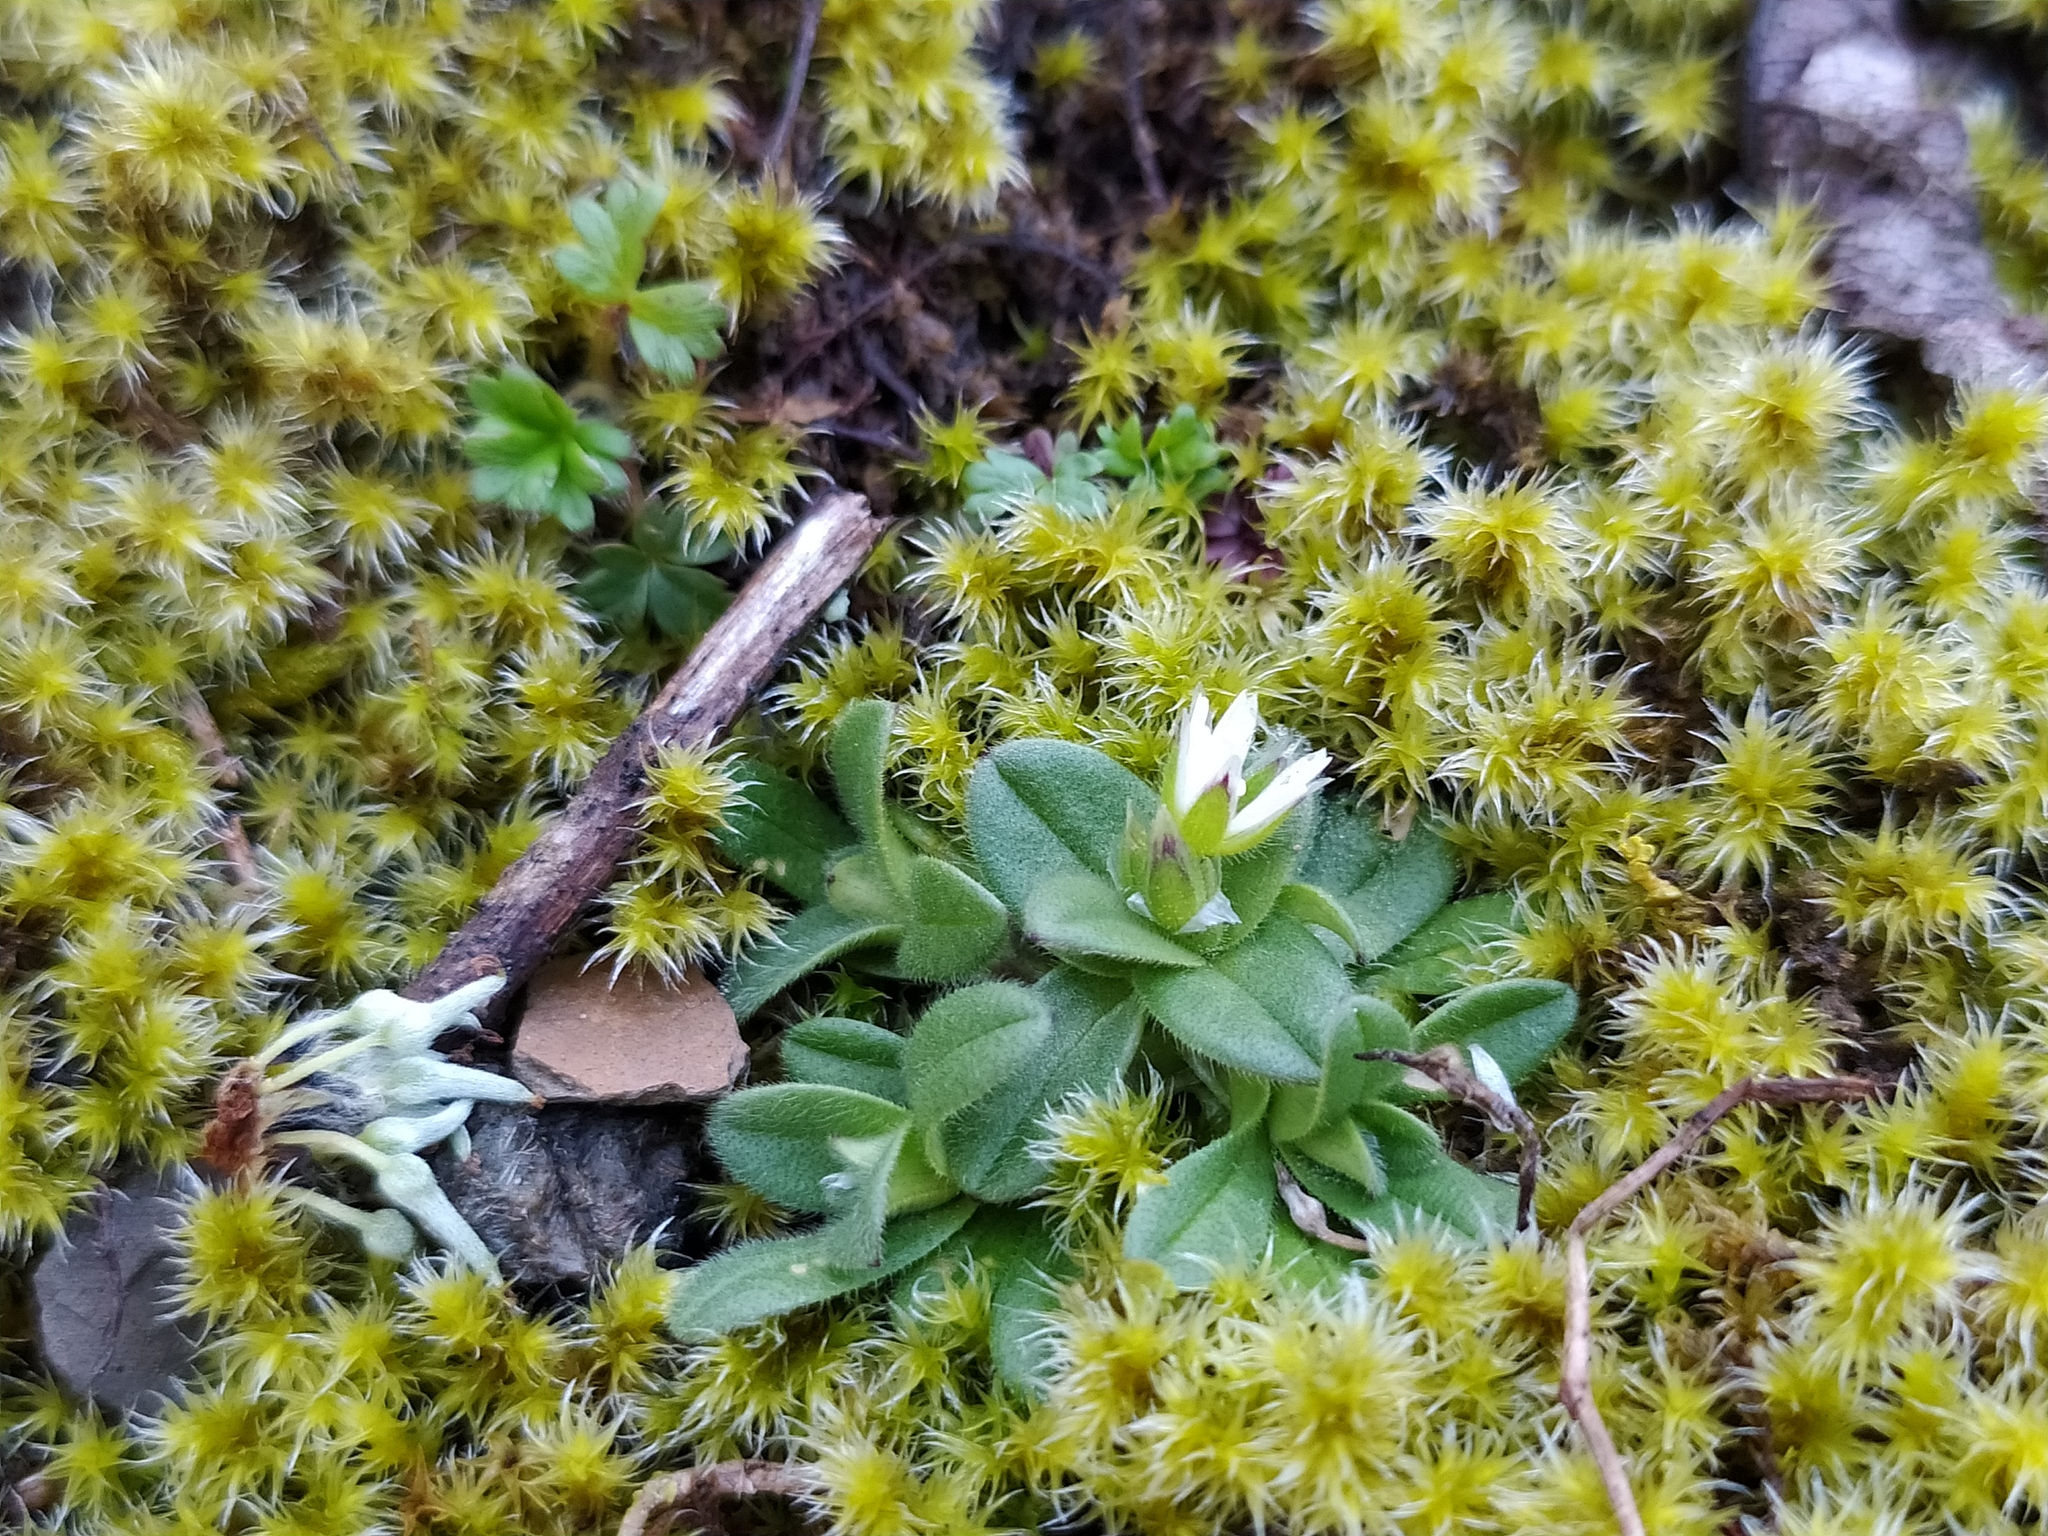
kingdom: Plantae
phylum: Tracheophyta
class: Magnoliopsida
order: Caryophyllales
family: Caryophyllaceae
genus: Cerastium
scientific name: Cerastium semidecandrum
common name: Little mouse-ear
